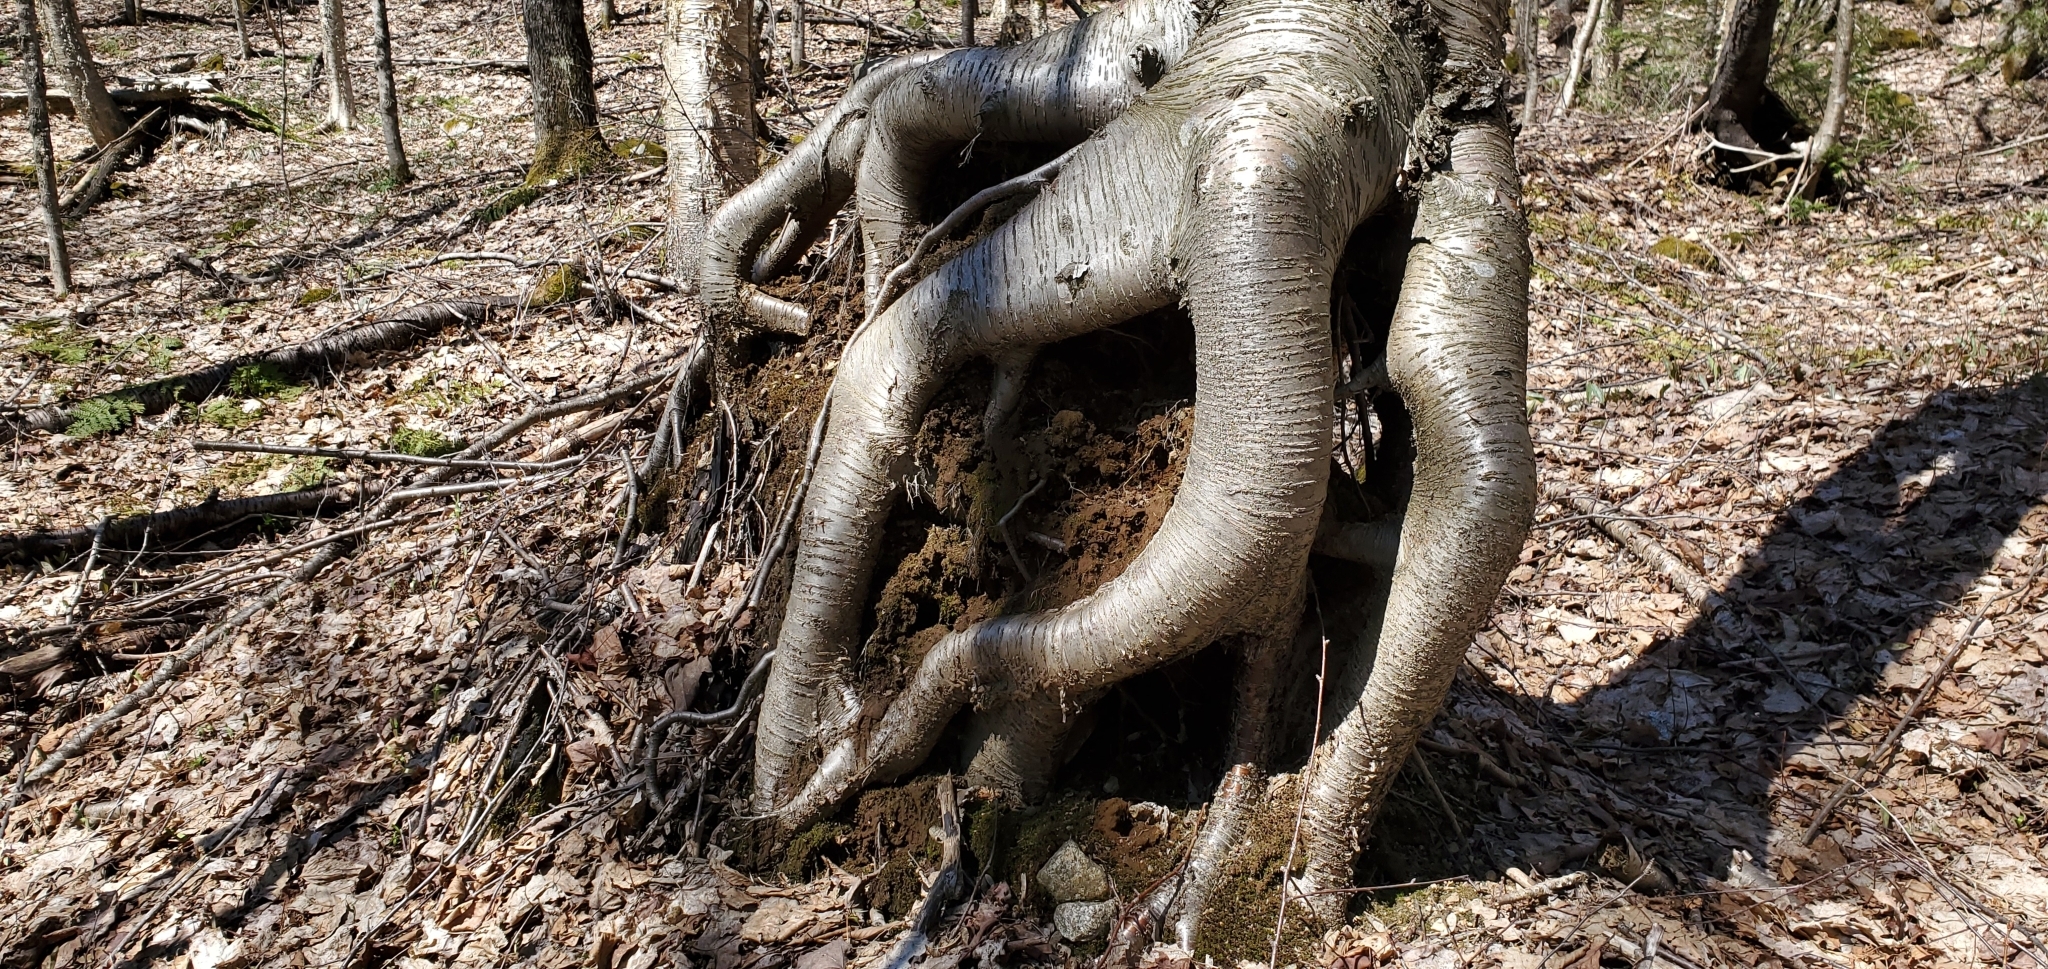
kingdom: Plantae
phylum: Tracheophyta
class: Magnoliopsida
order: Fagales
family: Betulaceae
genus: Betula
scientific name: Betula alleghaniensis
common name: Yellow birch
